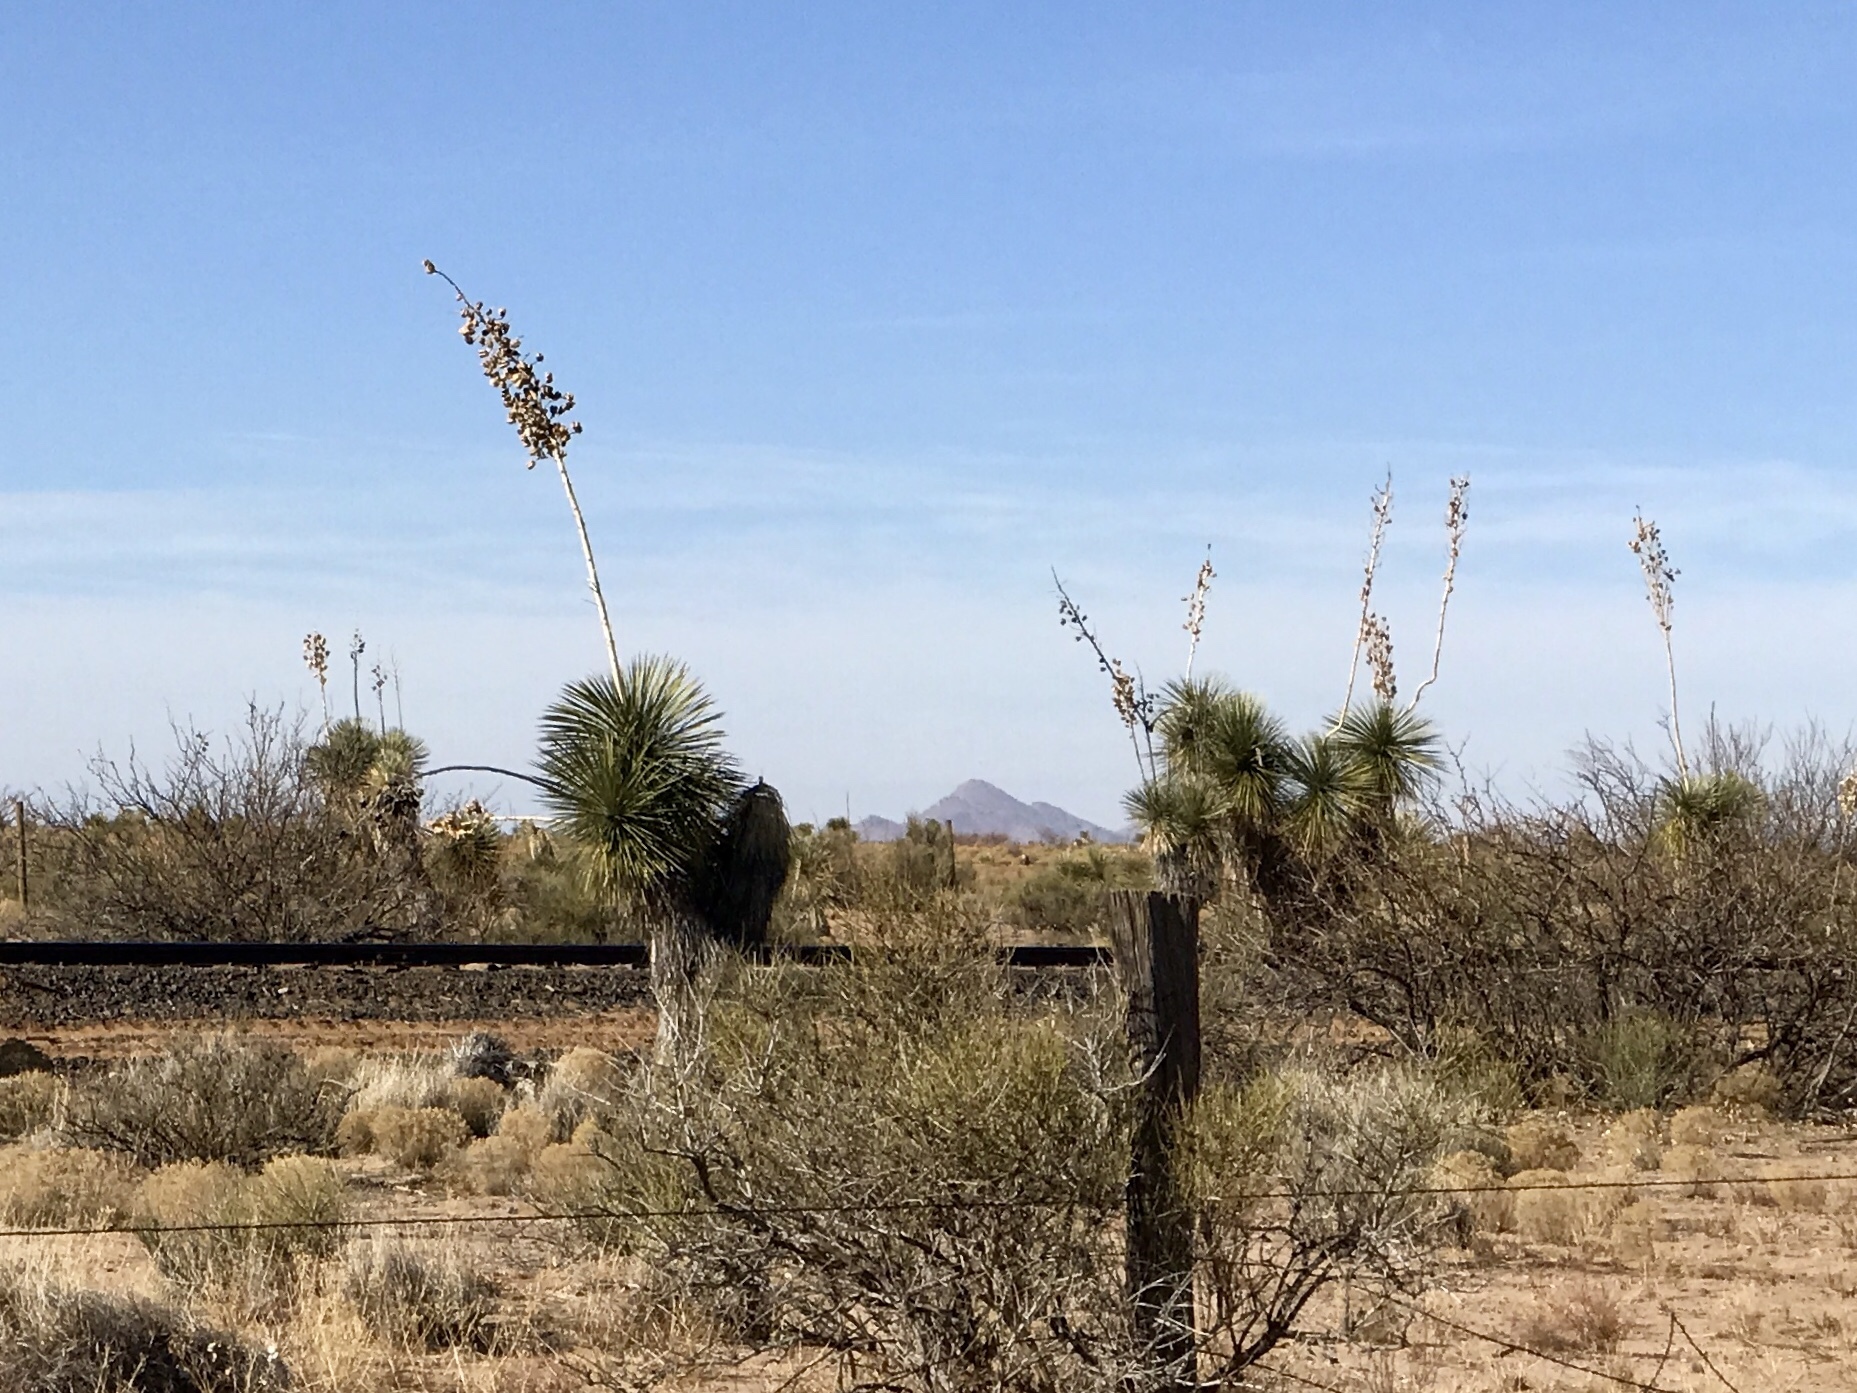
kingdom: Plantae
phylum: Tracheophyta
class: Liliopsida
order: Asparagales
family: Asparagaceae
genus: Yucca
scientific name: Yucca elata
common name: Palmella
